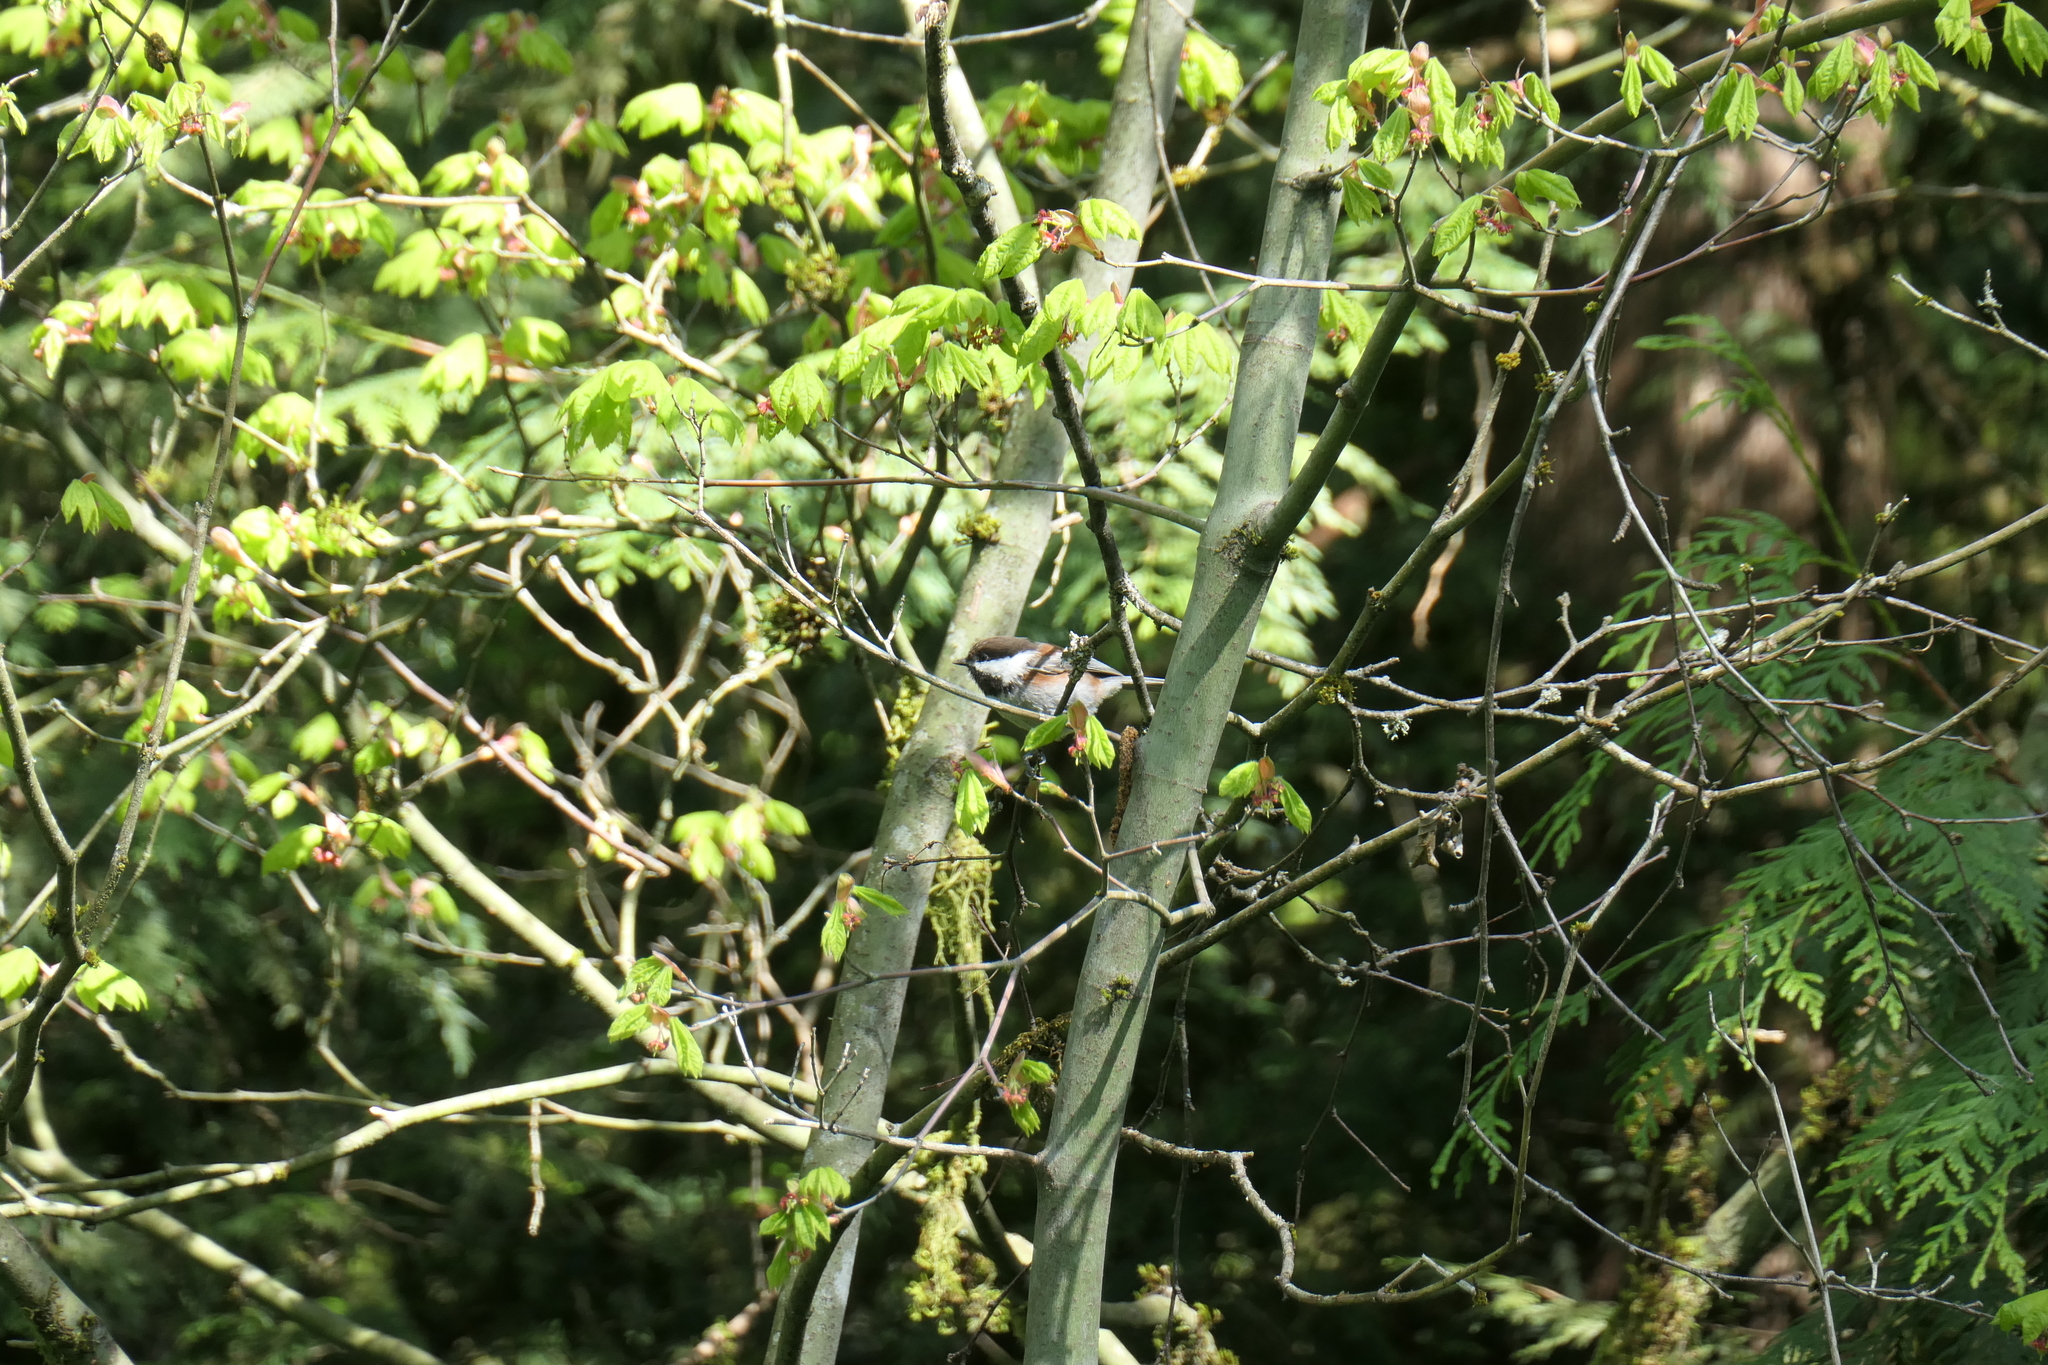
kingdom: Animalia
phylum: Chordata
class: Aves
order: Passeriformes
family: Paridae
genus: Poecile
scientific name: Poecile rufescens
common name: Chestnut-backed chickadee
